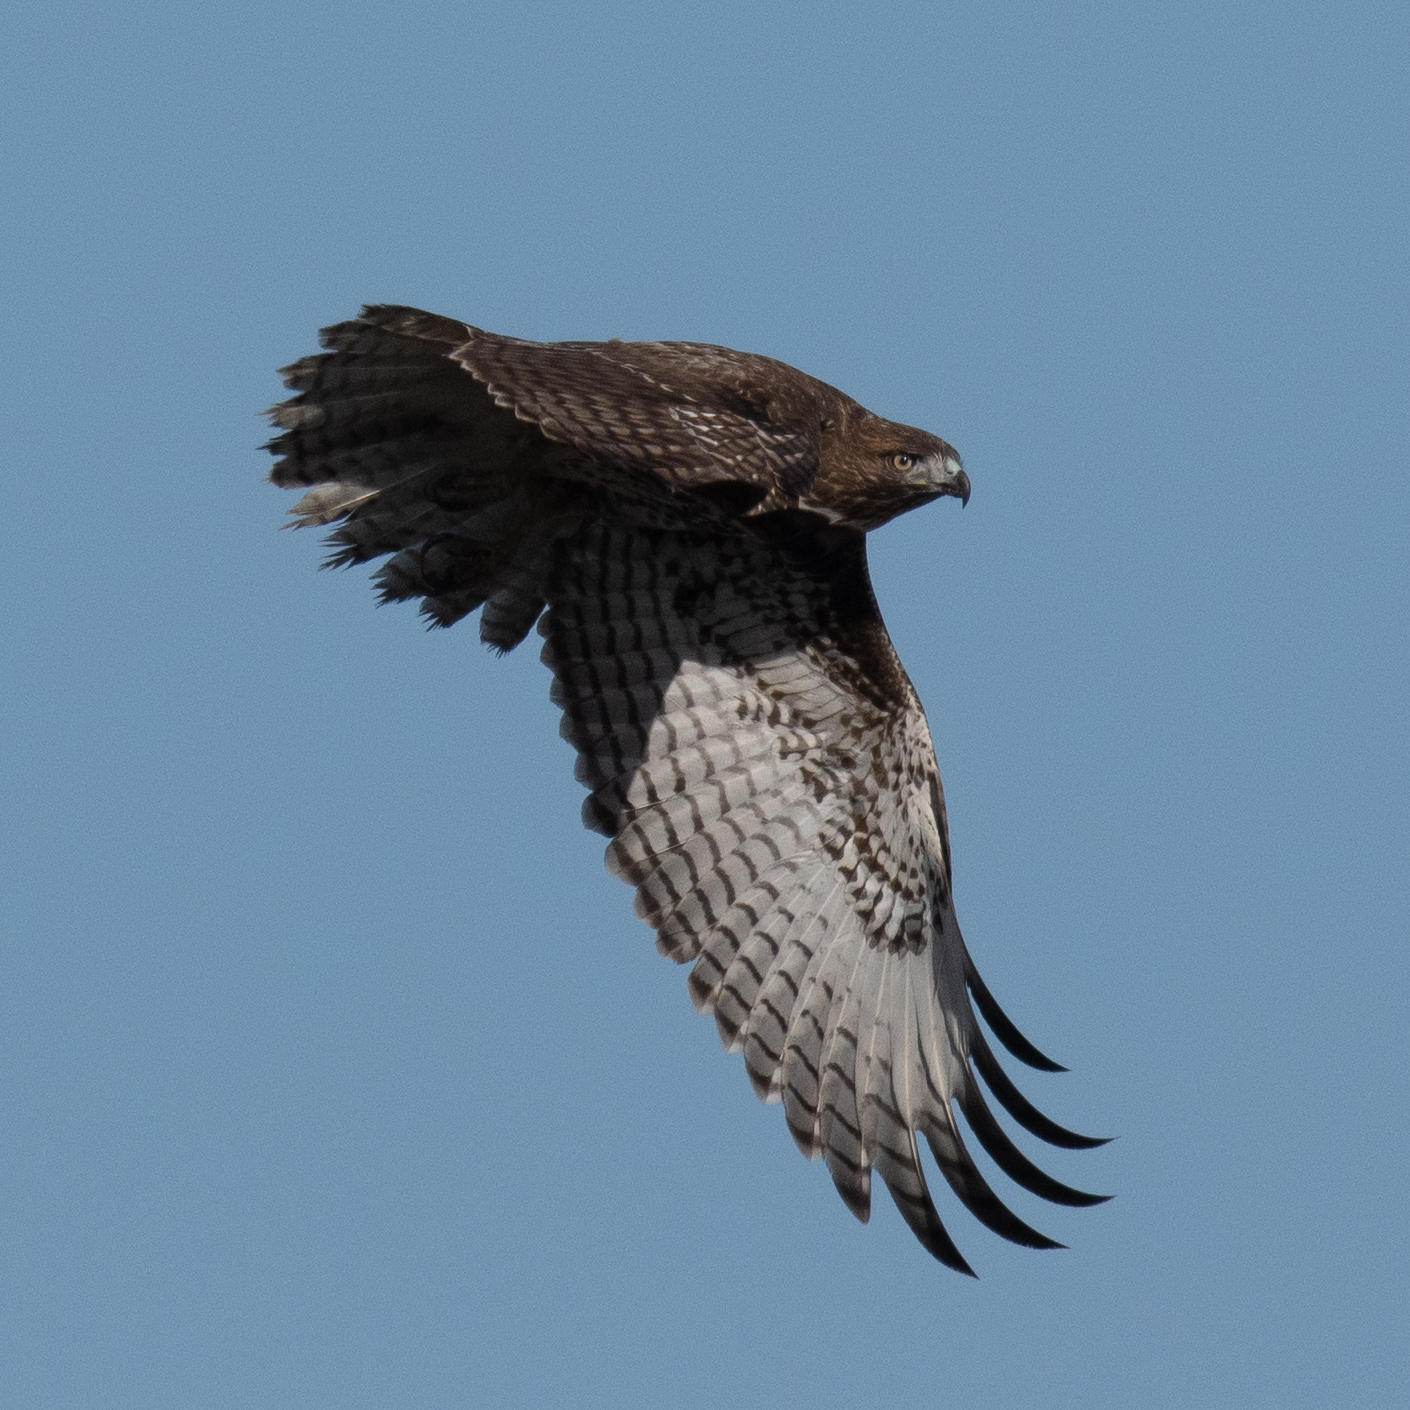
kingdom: Animalia
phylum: Chordata
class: Aves
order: Accipitriformes
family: Accipitridae
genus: Buteo
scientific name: Buteo jamaicensis
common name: Red-tailed hawk
